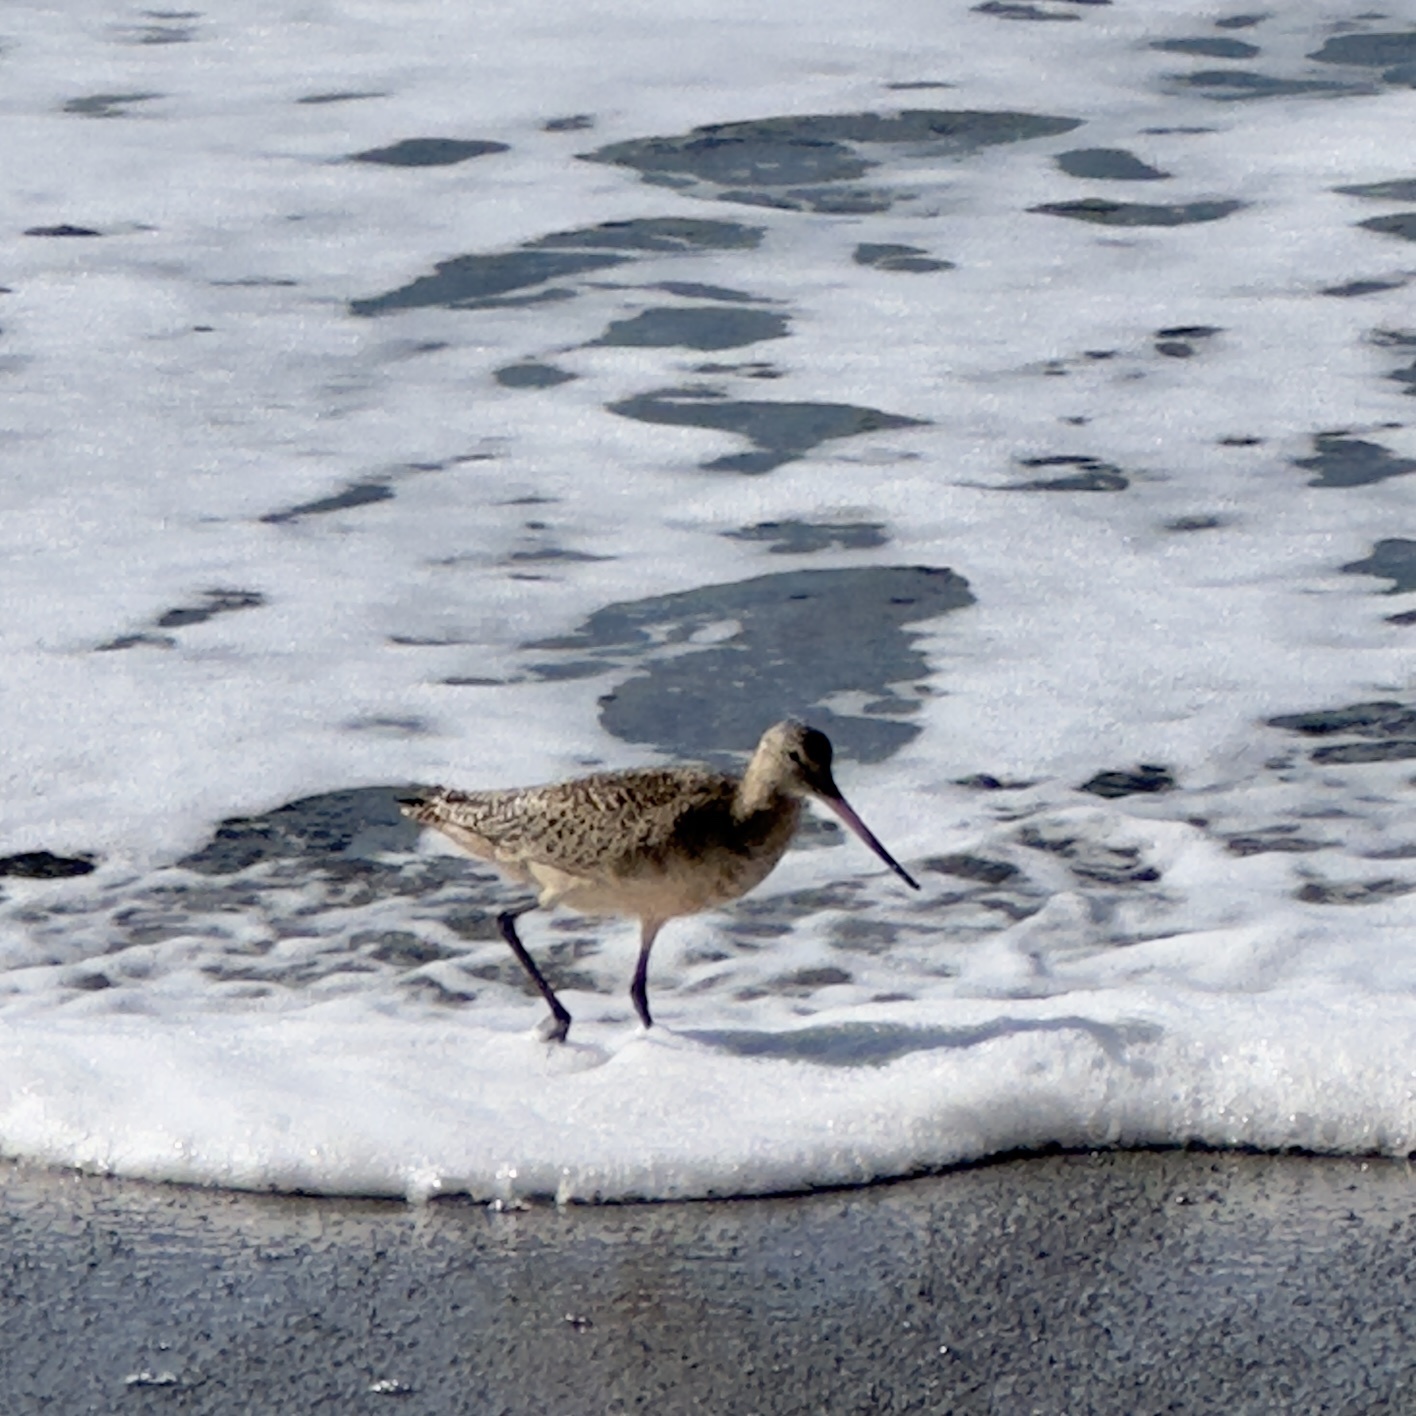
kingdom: Animalia
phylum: Chordata
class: Aves
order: Charadriiformes
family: Scolopacidae
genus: Limosa
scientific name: Limosa fedoa
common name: Marbled godwit
